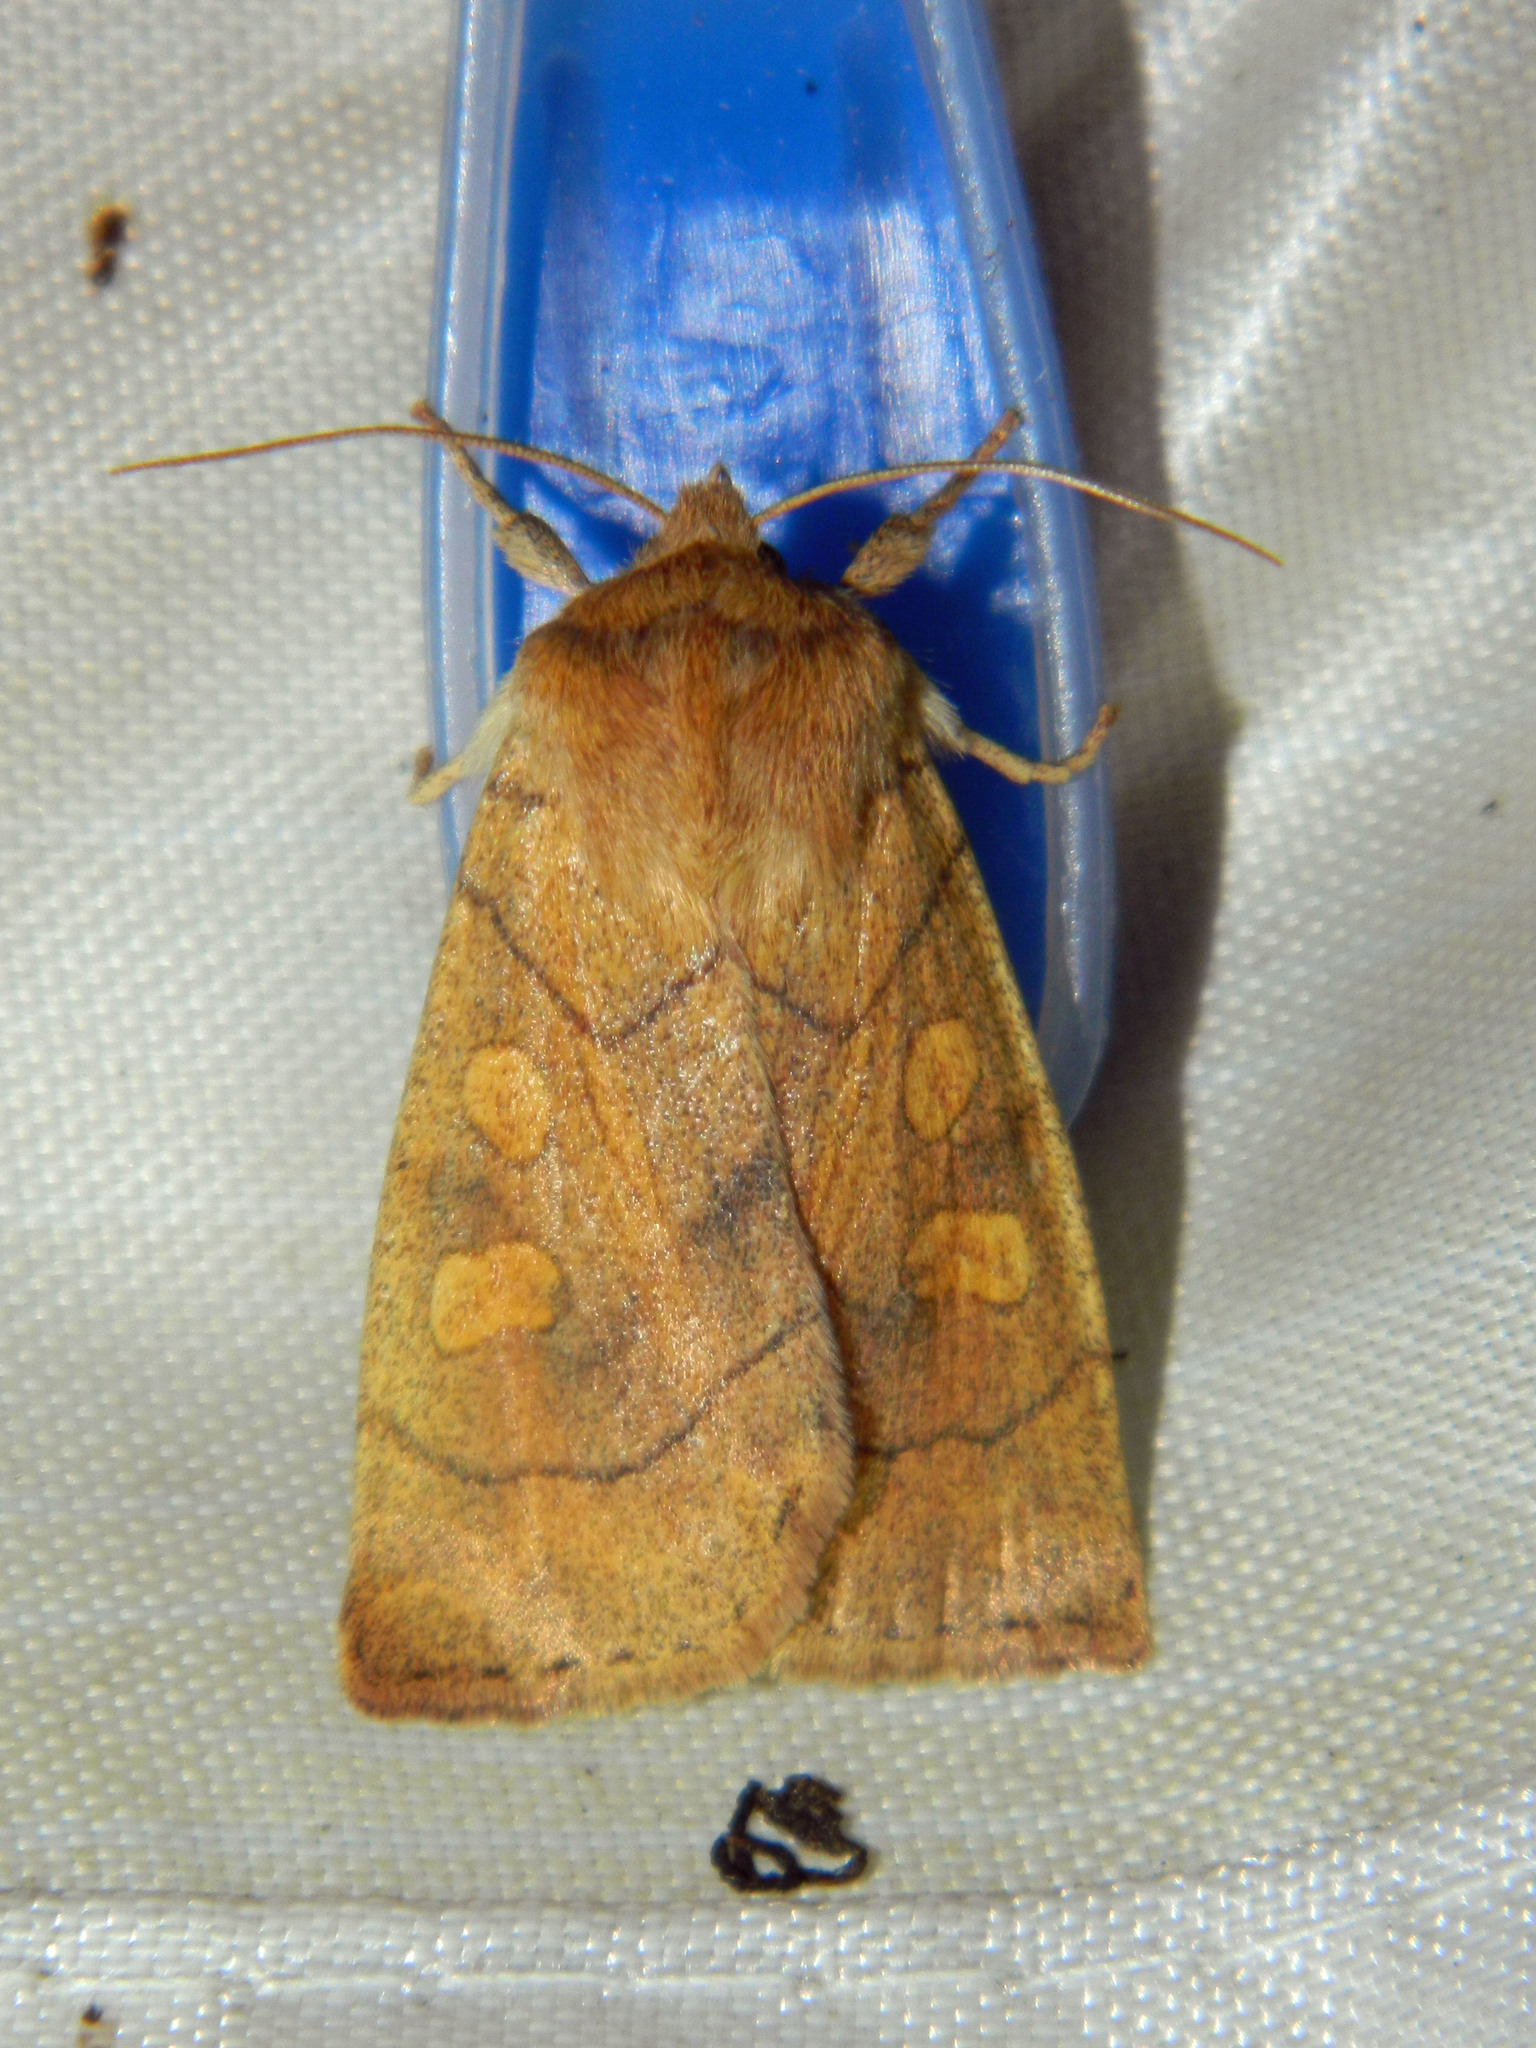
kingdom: Animalia
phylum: Arthropoda
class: Insecta
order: Lepidoptera
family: Noctuidae
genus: Enargia
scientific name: Enargia decolor
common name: Aspen twoleaf tier moth
